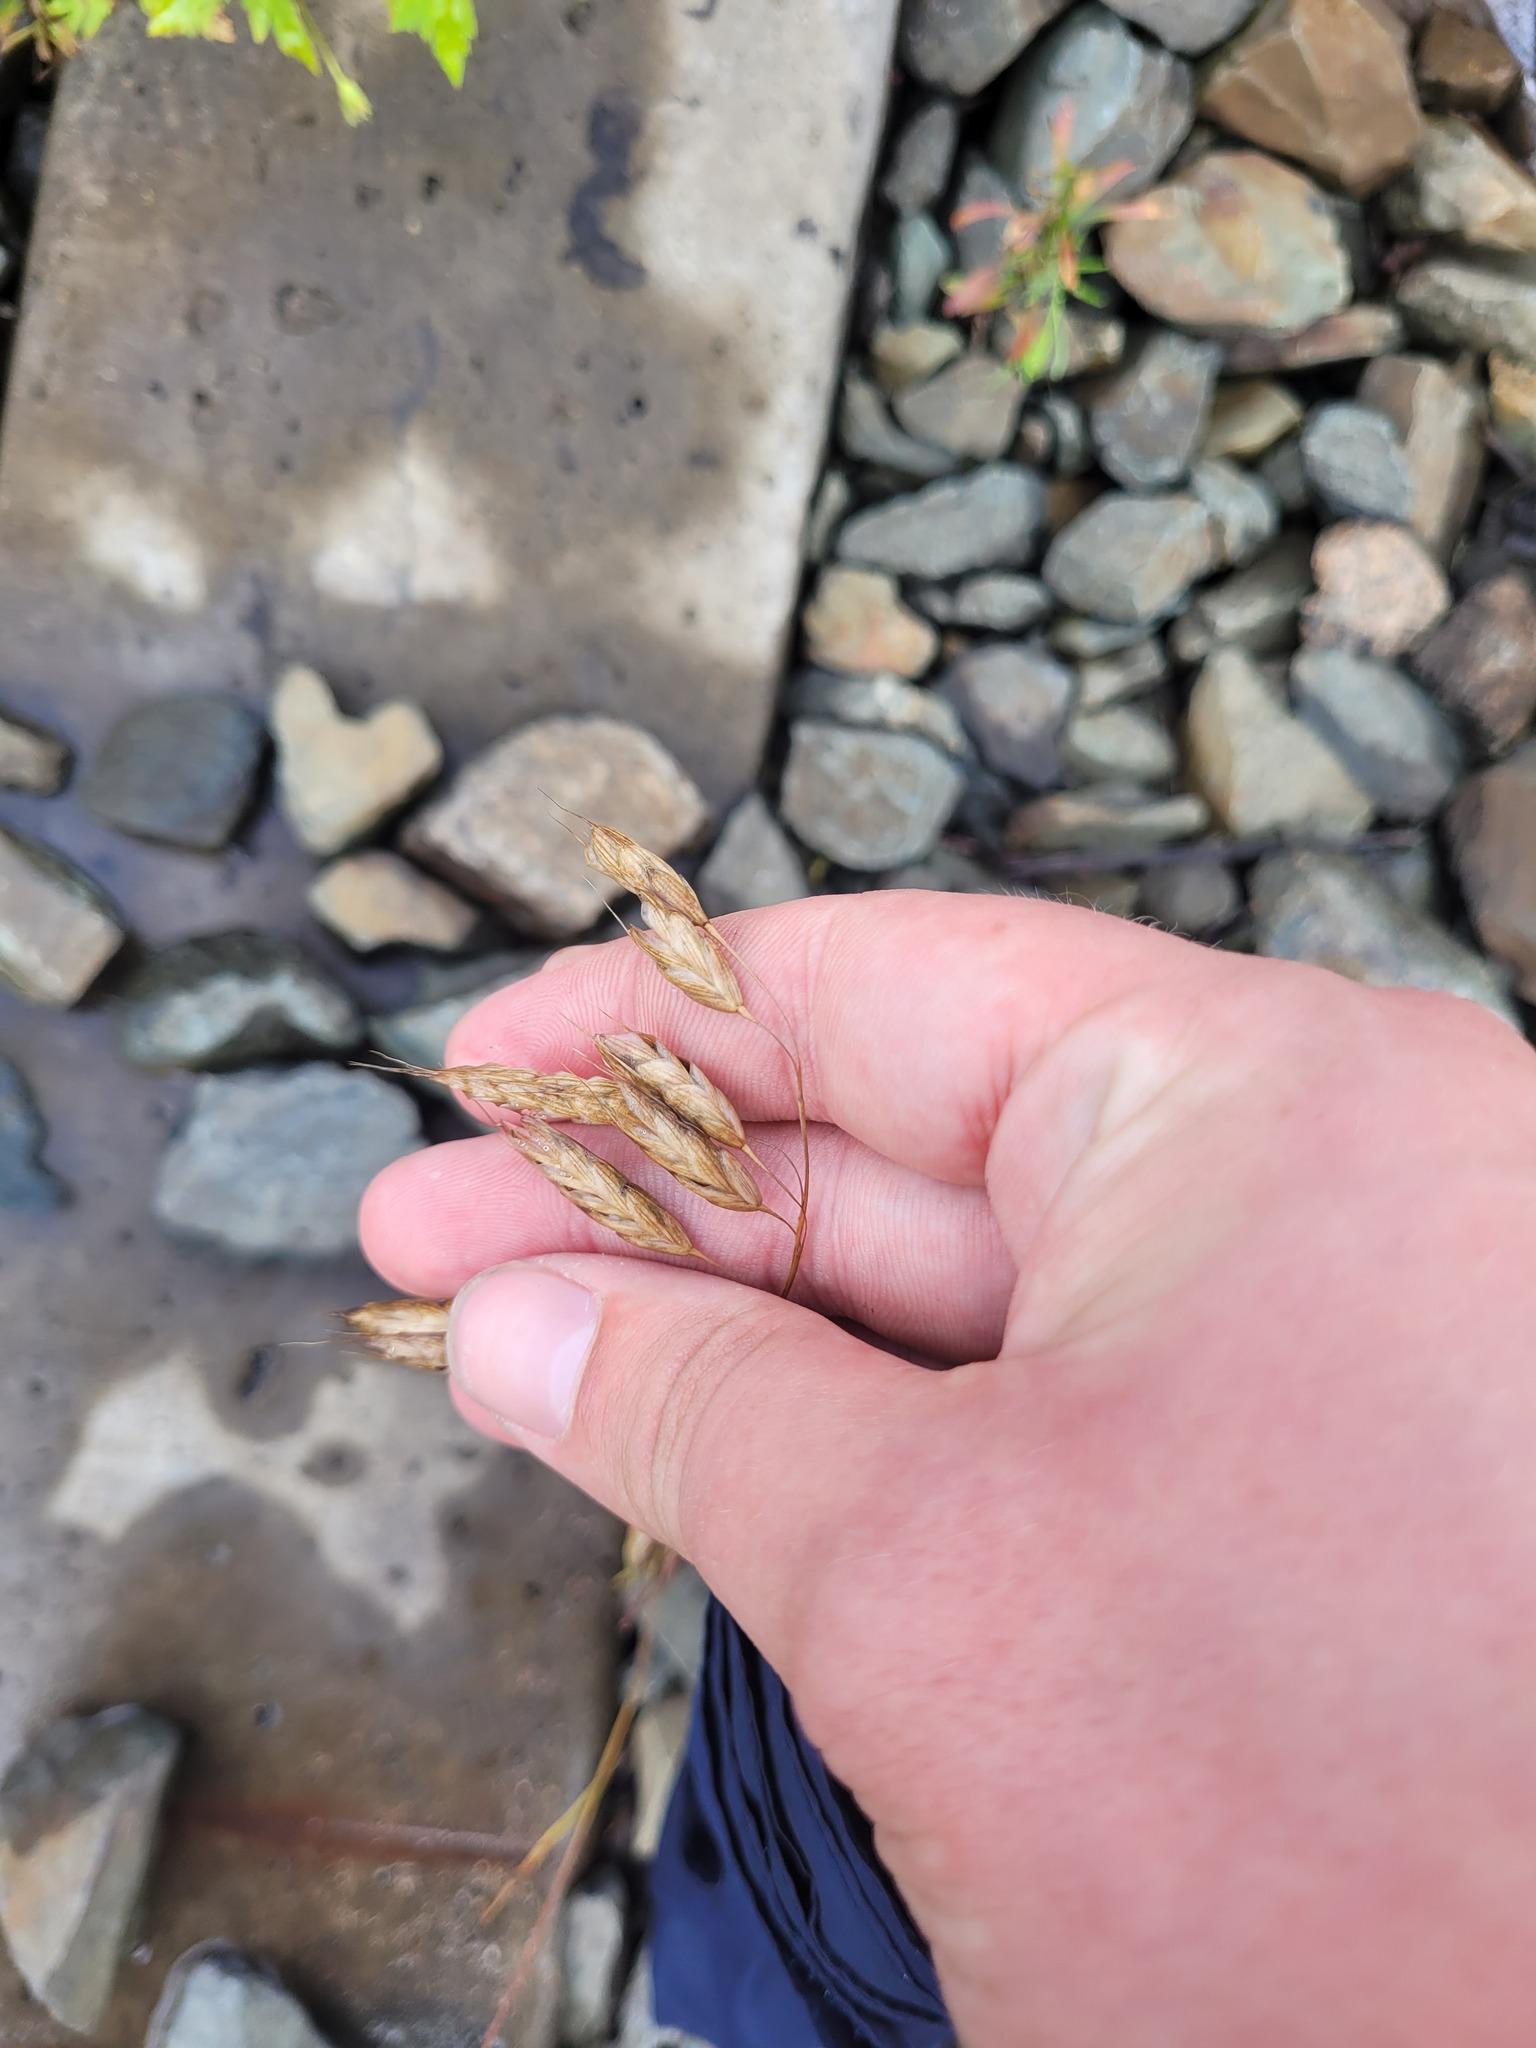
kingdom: Plantae
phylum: Tracheophyta
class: Liliopsida
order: Poales
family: Poaceae
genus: Bromus
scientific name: Bromus squarrosus
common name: Corn brome
